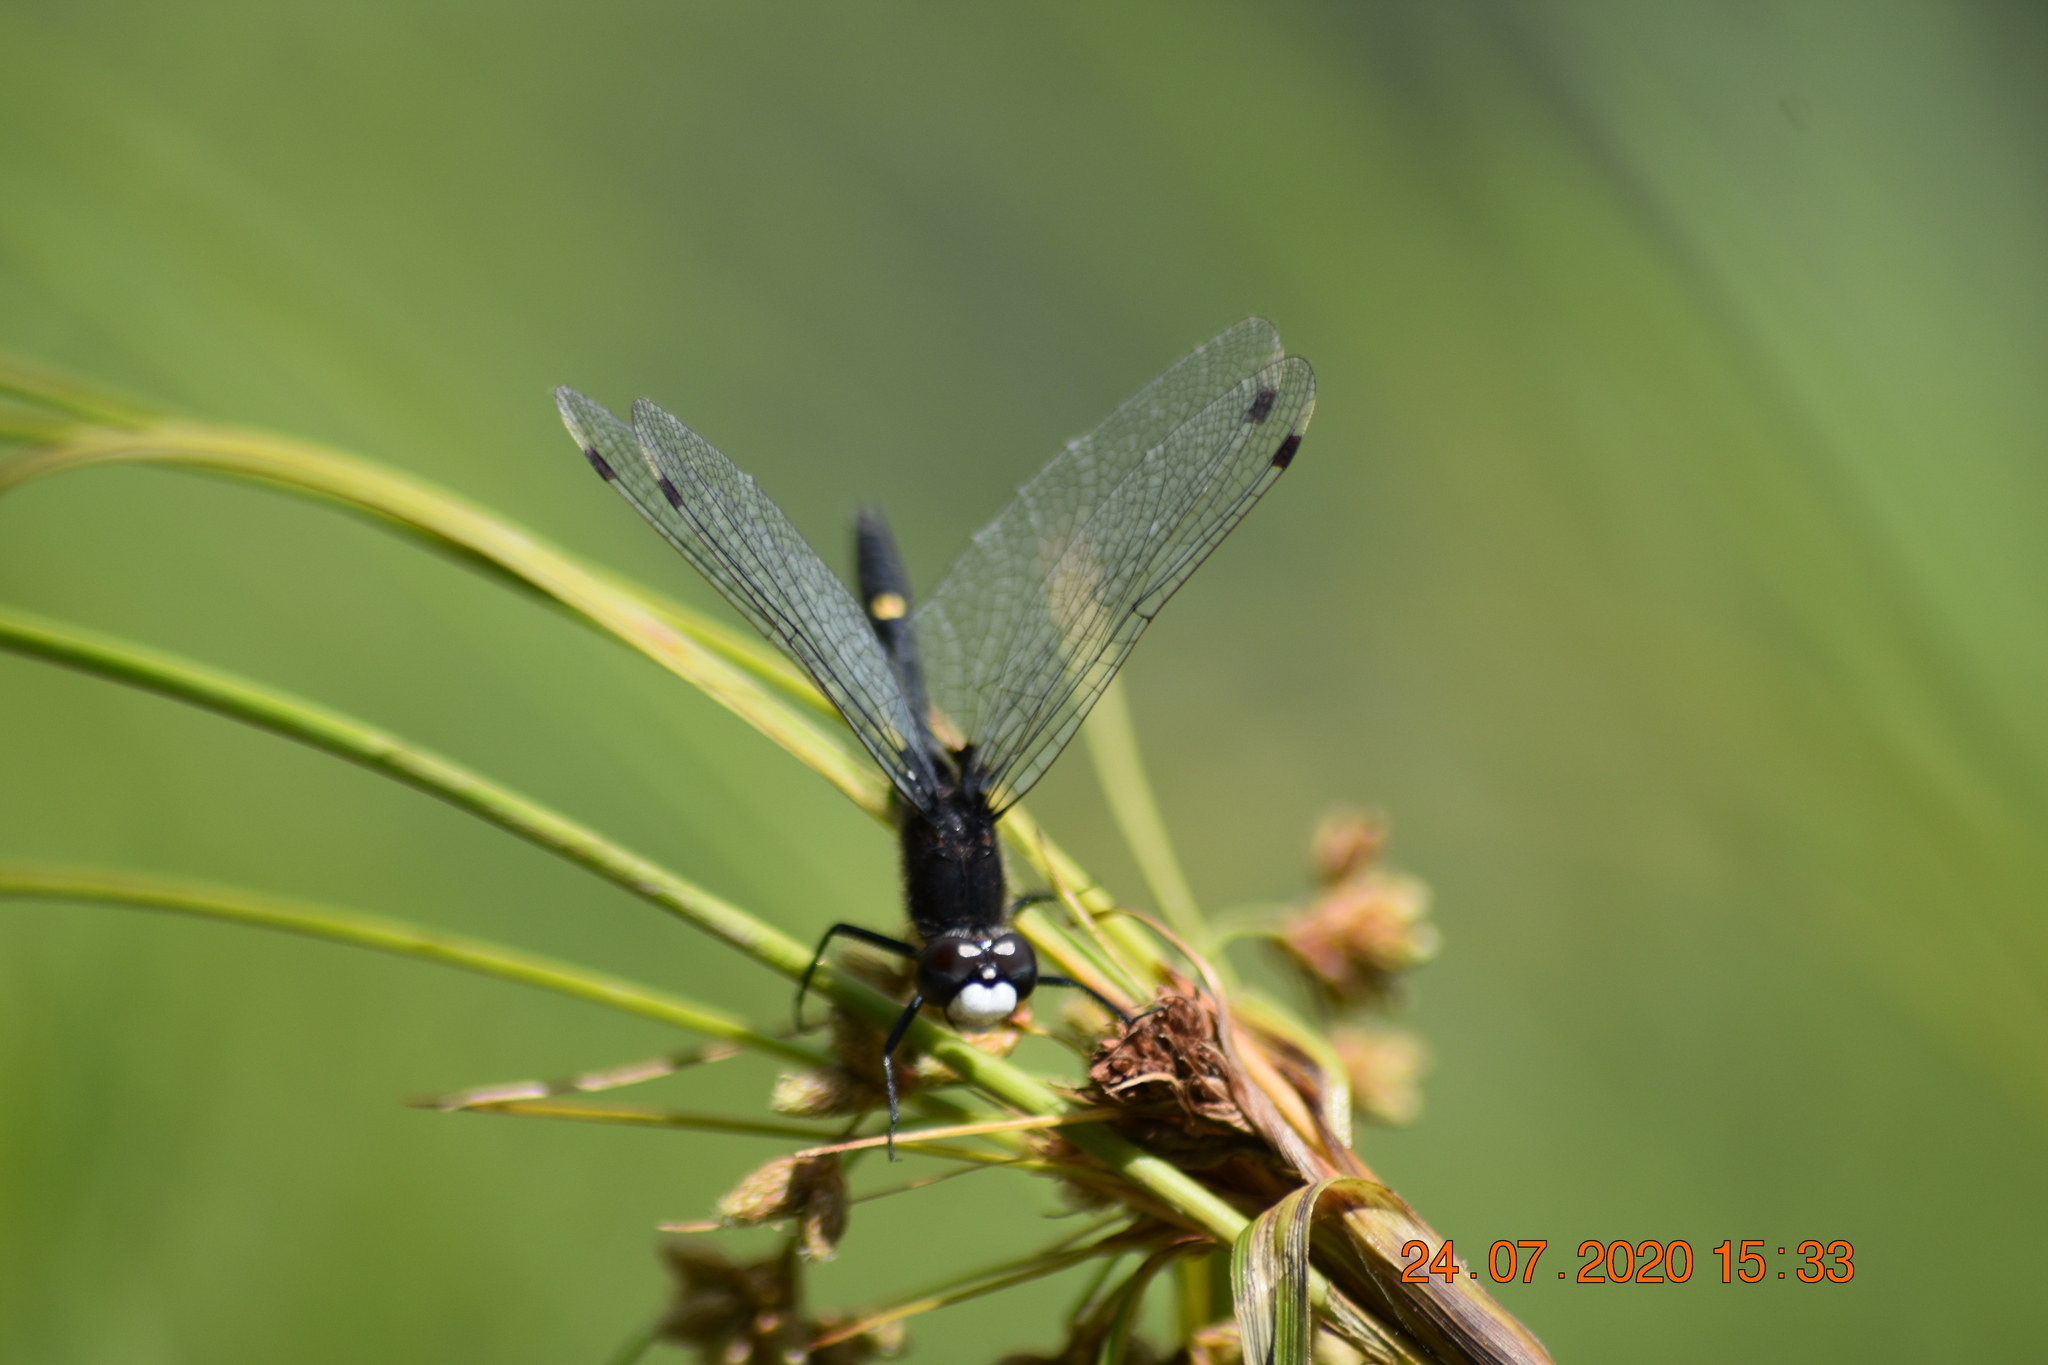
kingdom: Animalia
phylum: Arthropoda
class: Insecta
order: Odonata
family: Libellulidae
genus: Leucorrhinia
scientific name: Leucorrhinia intacta
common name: Dot-tailed whiteface
